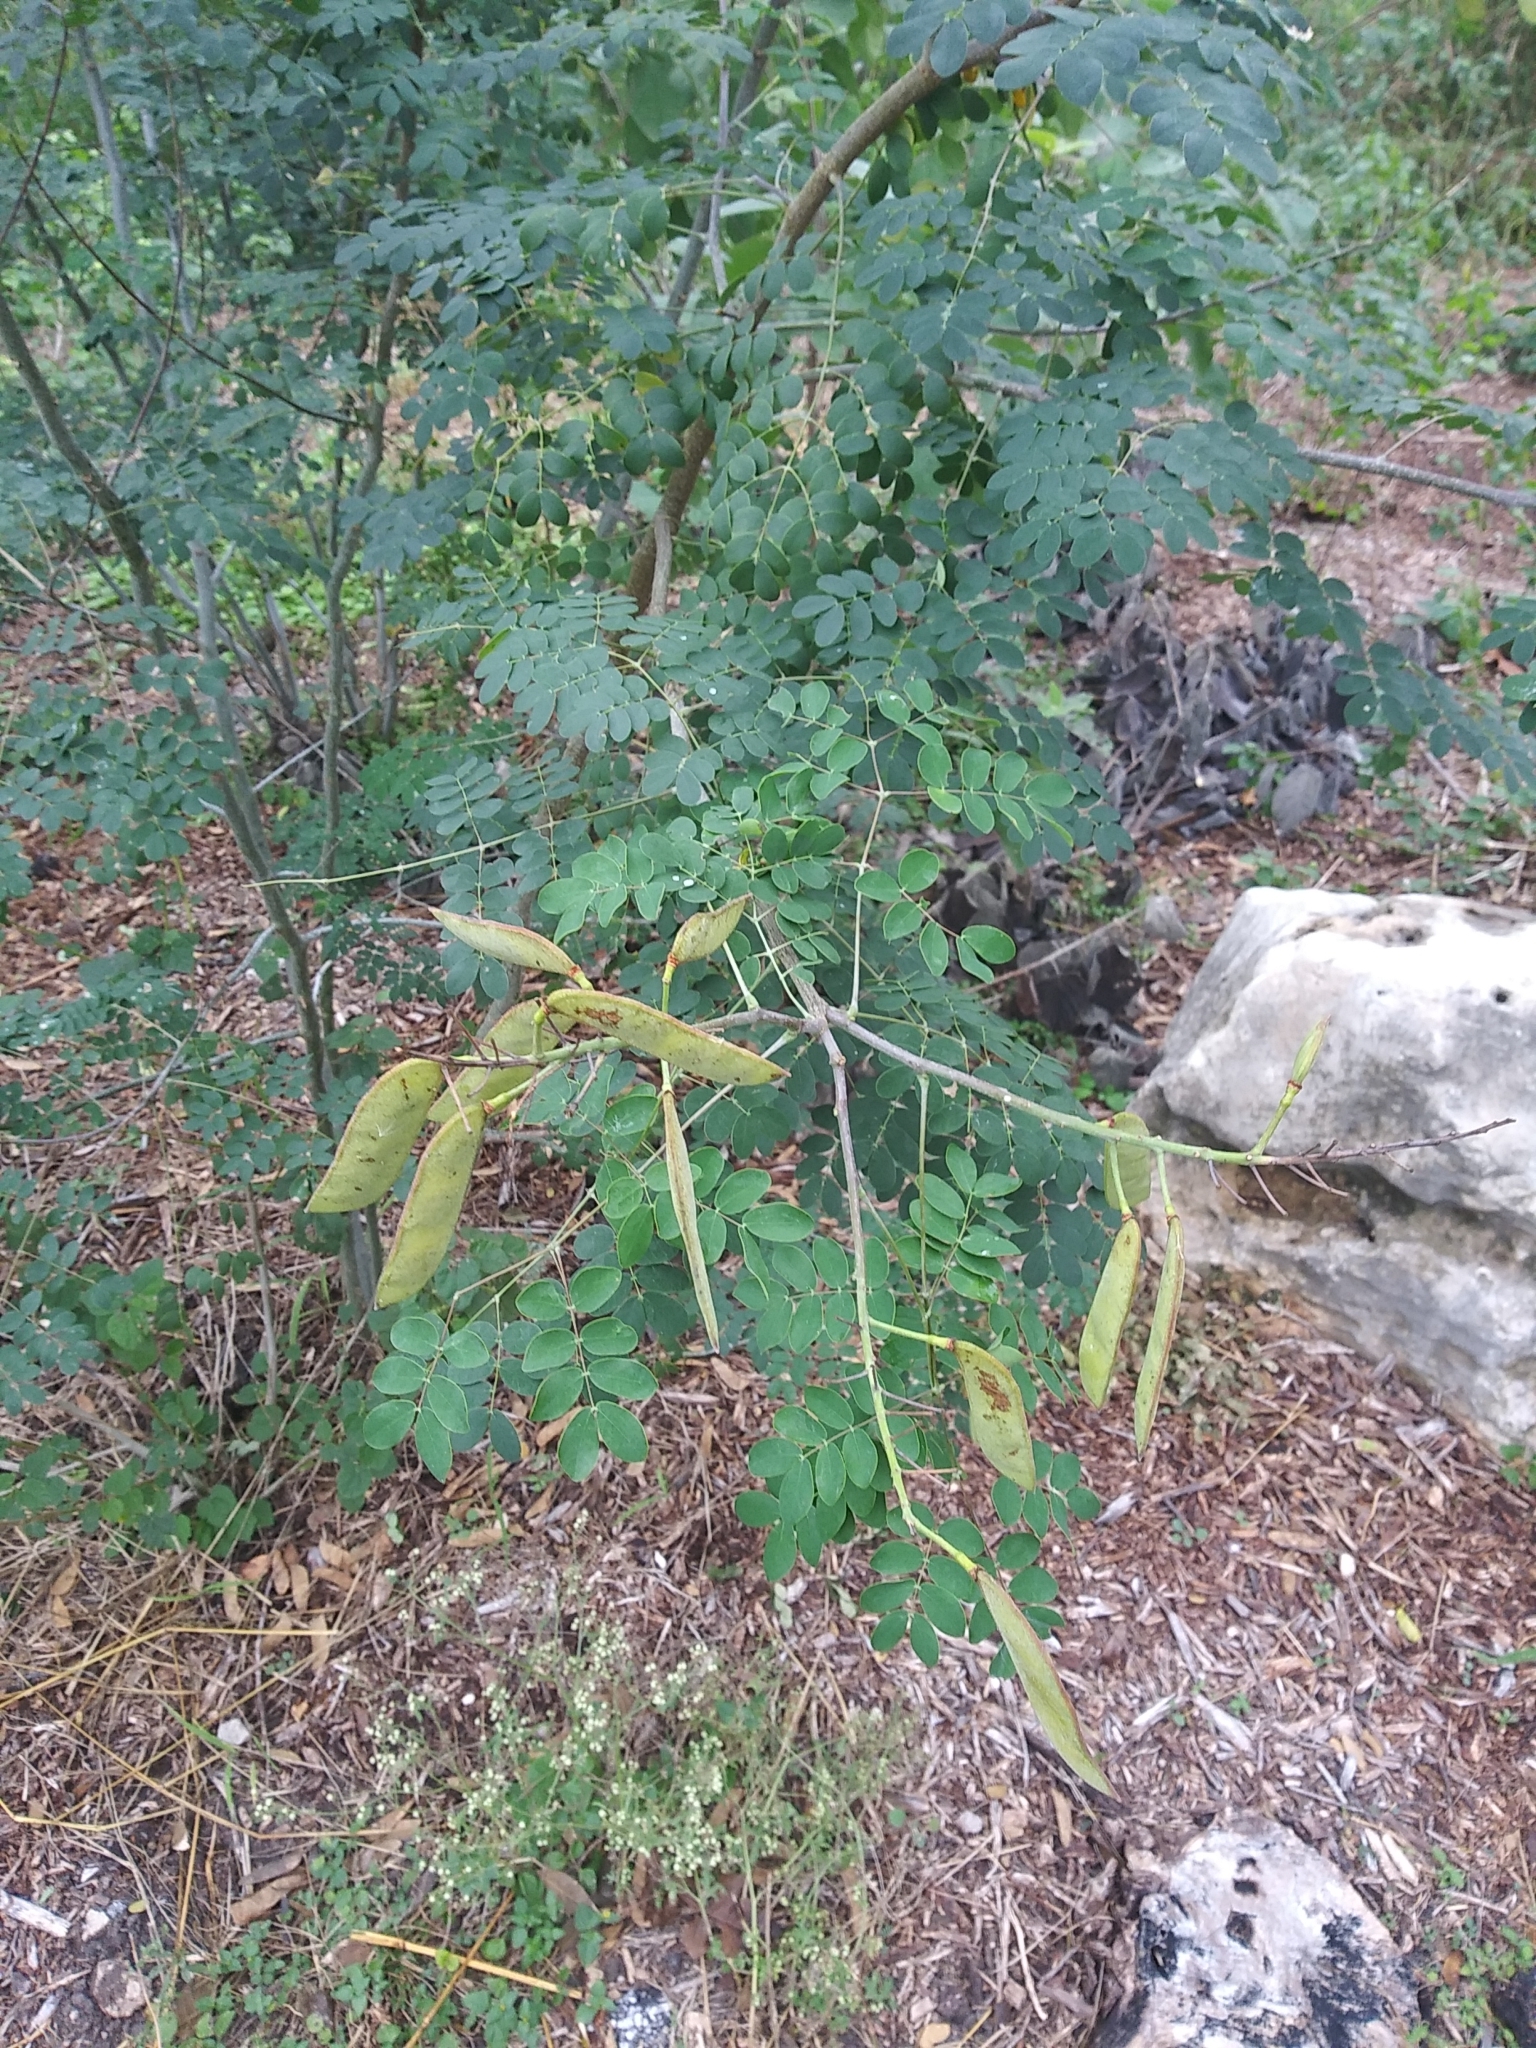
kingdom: Plantae
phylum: Tracheophyta
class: Magnoliopsida
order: Fabales
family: Fabaceae
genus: Erythrostemon
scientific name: Erythrostemon mexicanus
